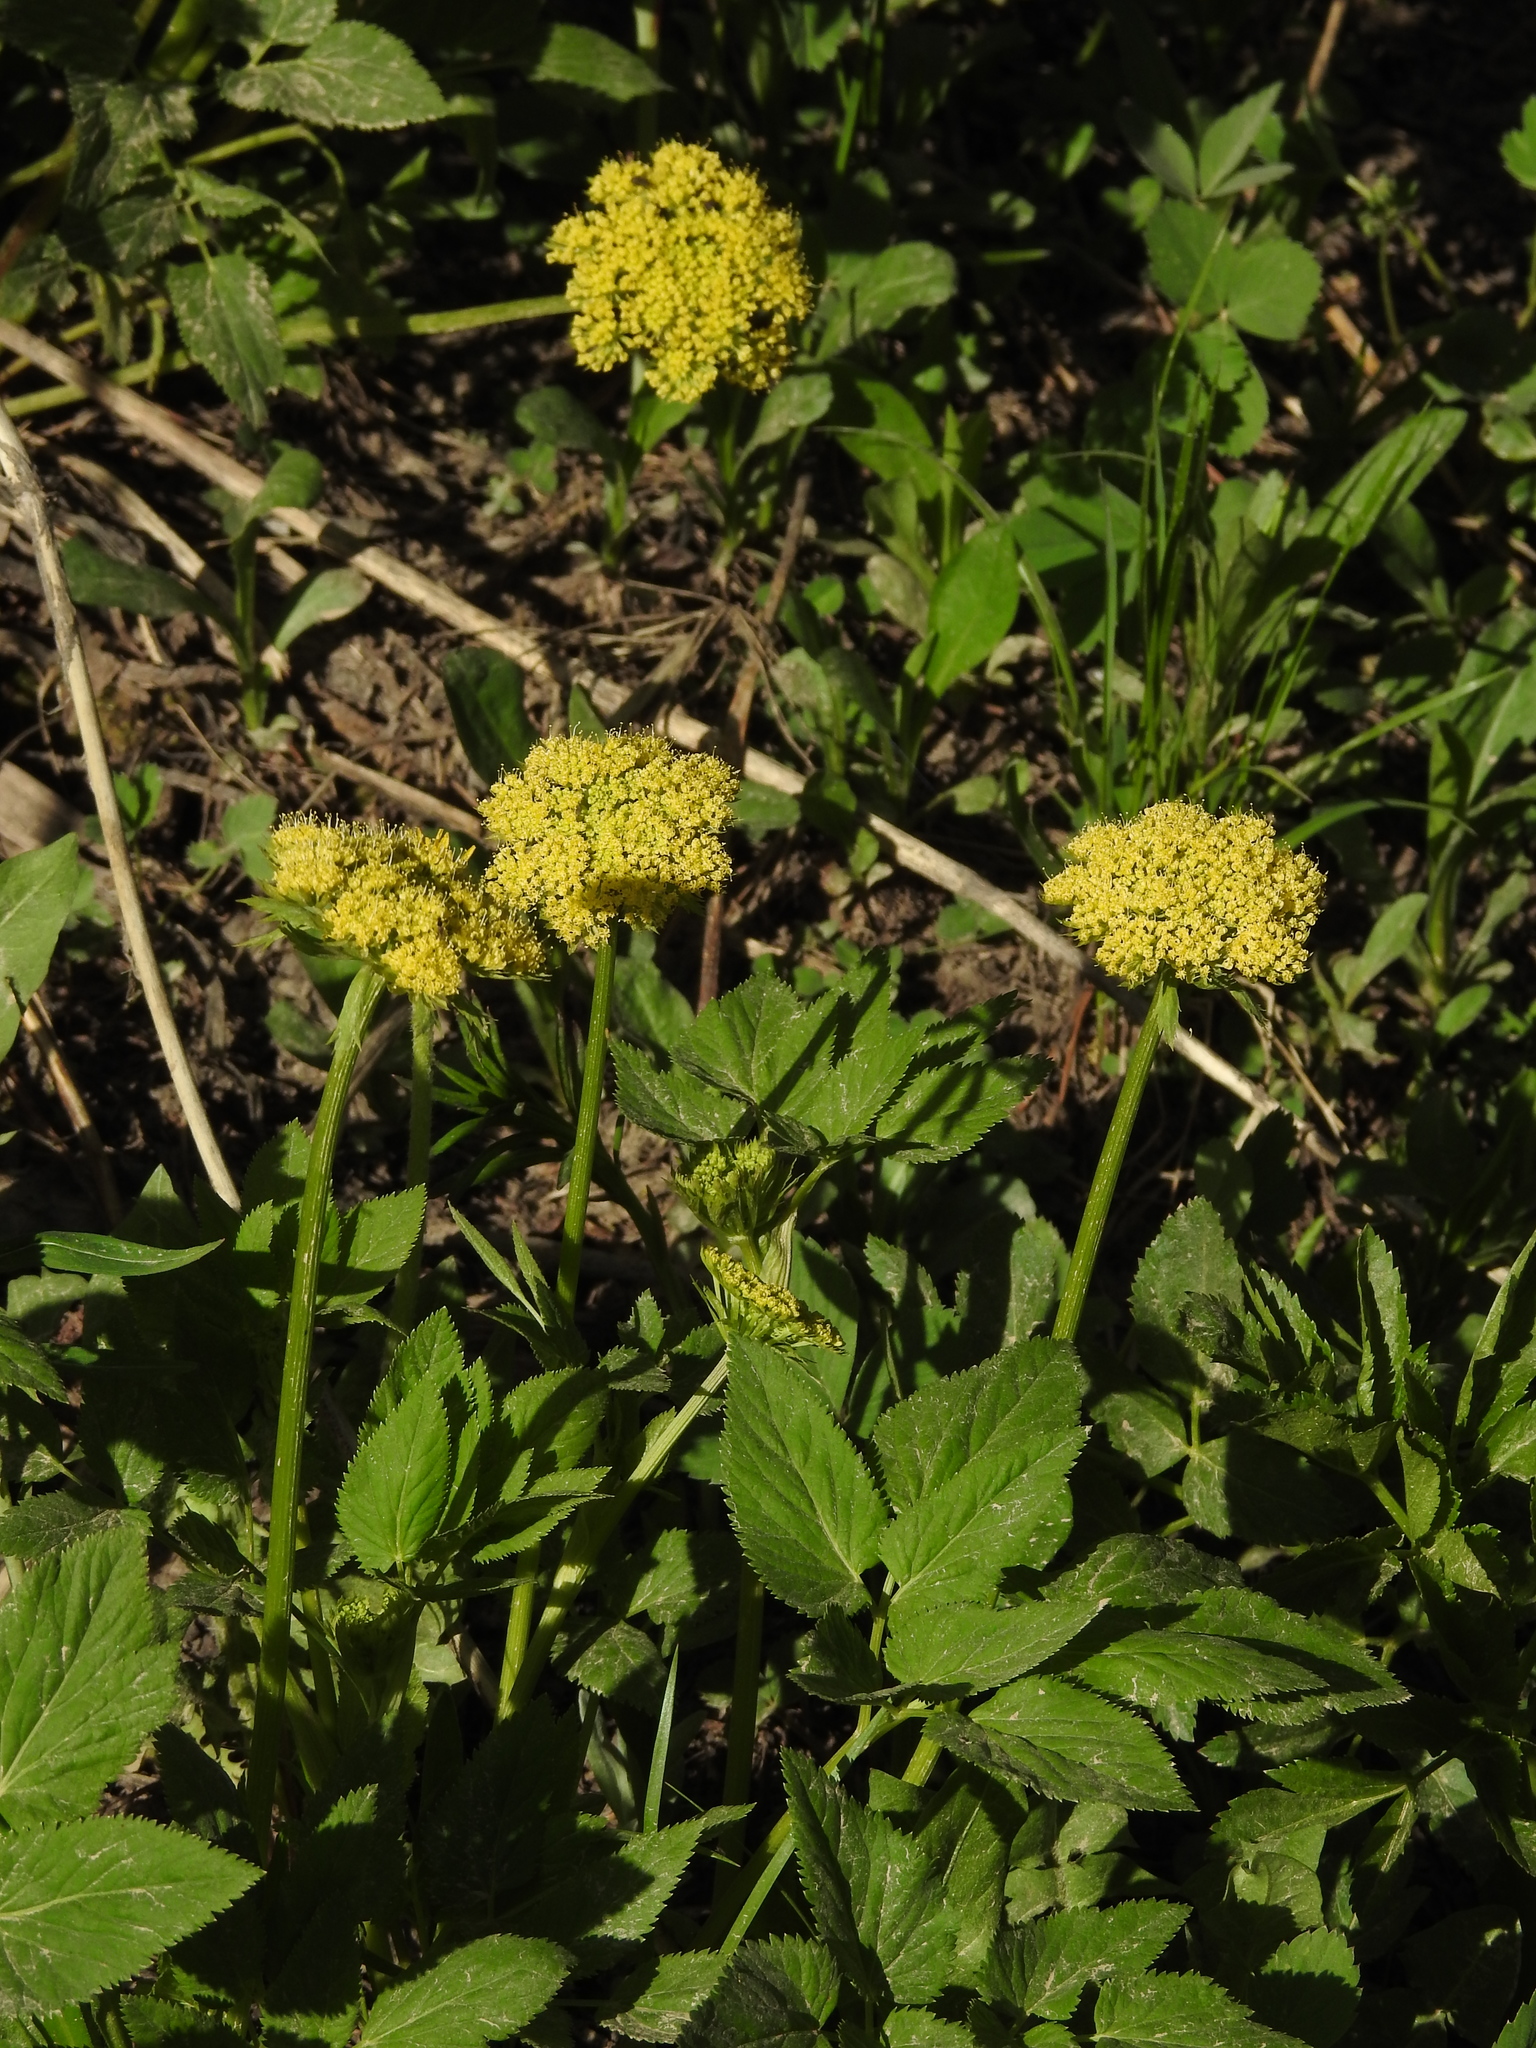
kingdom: Plantae
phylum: Tracheophyta
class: Magnoliopsida
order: Apiales
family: Apiaceae
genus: Angelica
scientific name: Angelica dawsonii
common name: Dawson's angelica
